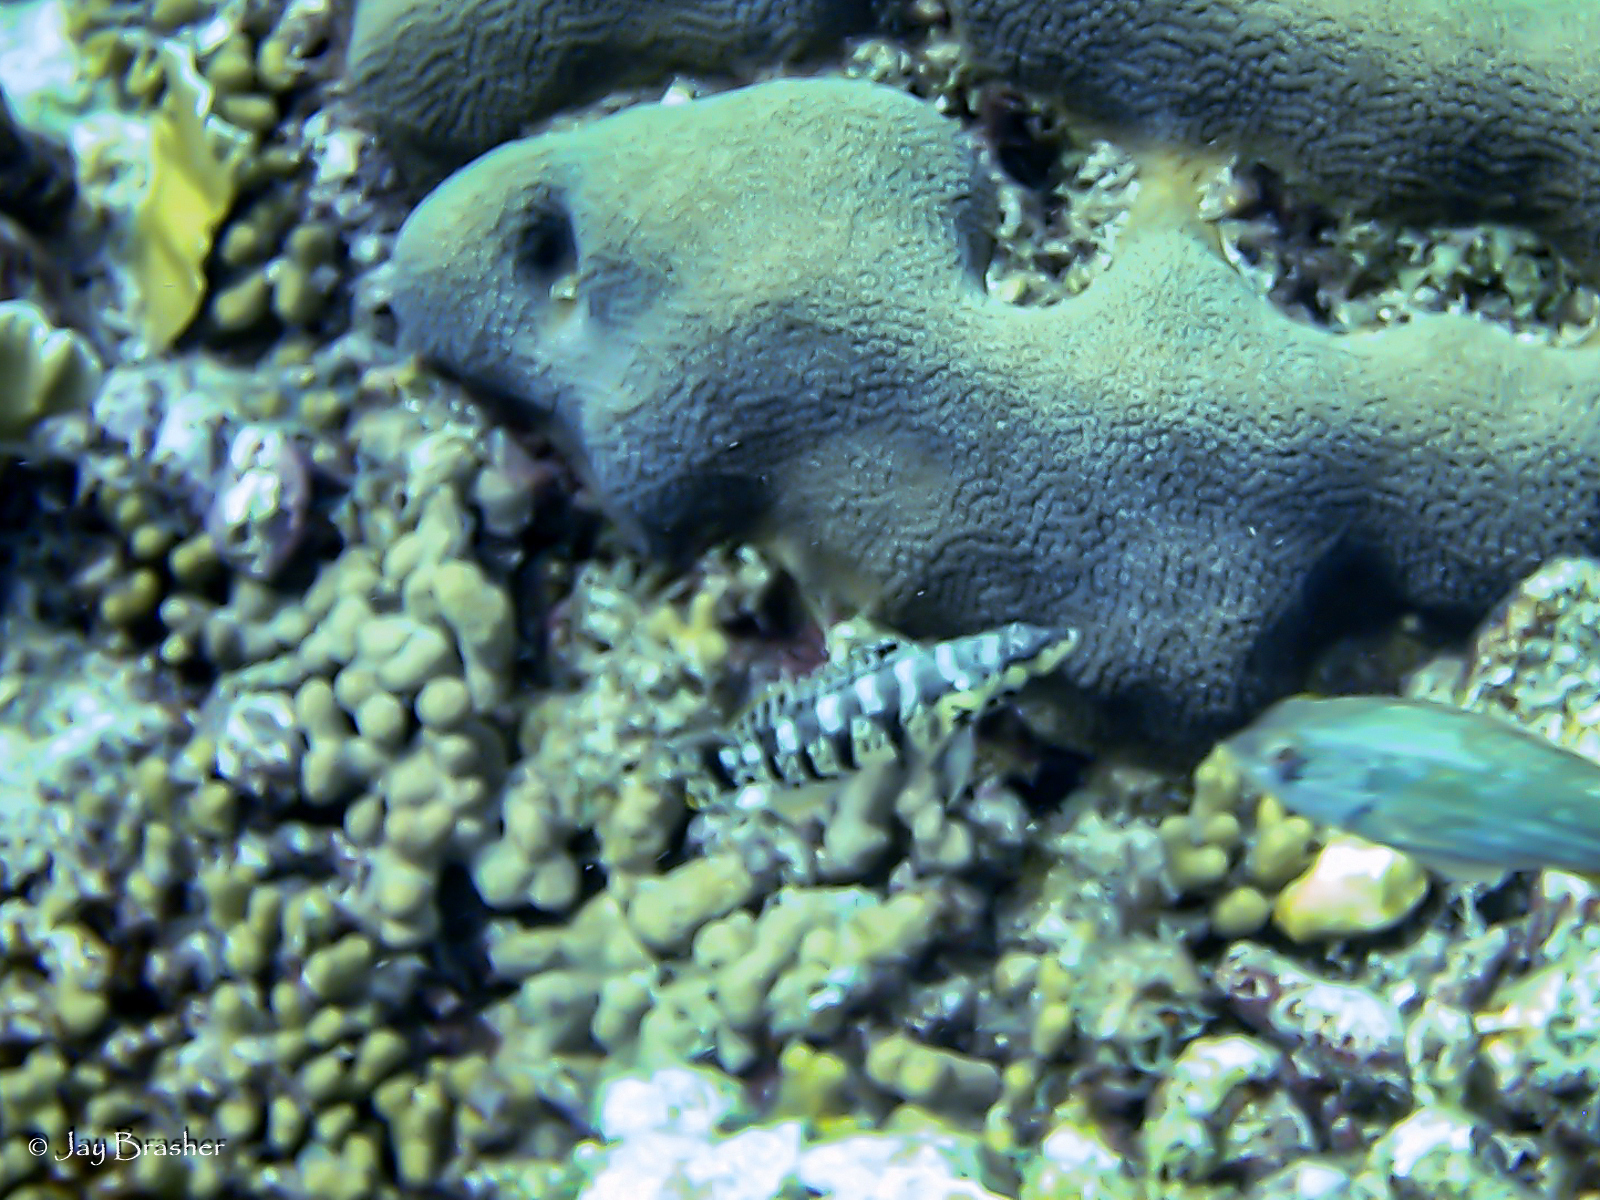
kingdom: Animalia
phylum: Chordata
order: Perciformes
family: Serranidae
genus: Serranus
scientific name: Serranus tigrinus
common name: Harlequin bass
